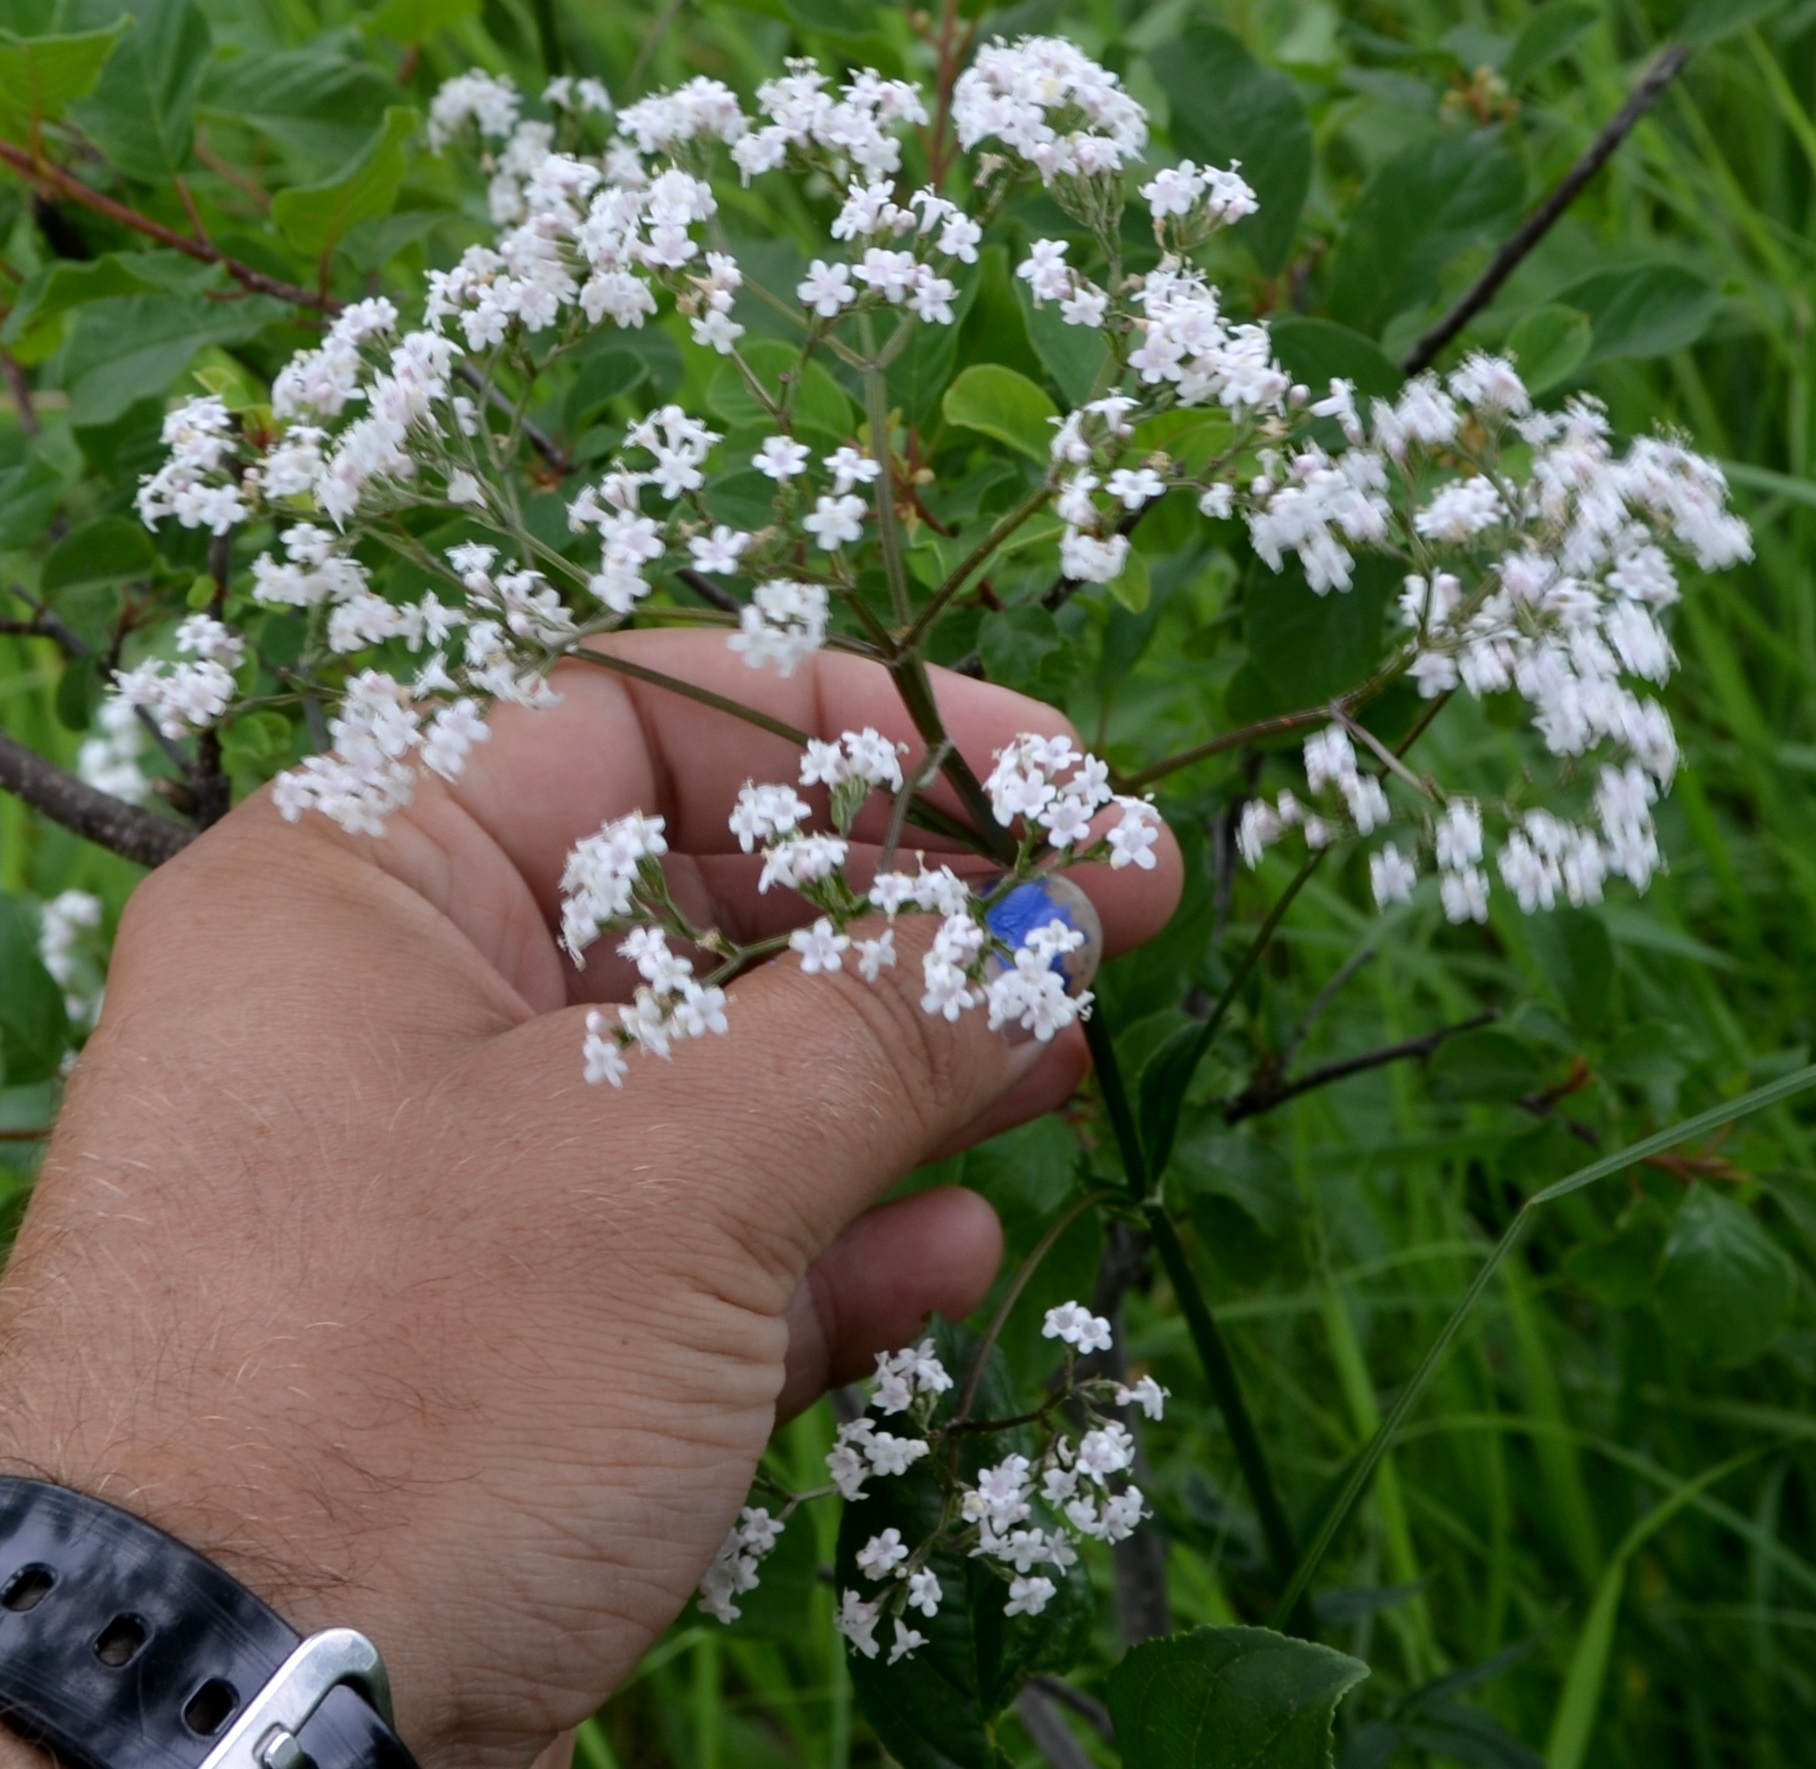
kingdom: Plantae
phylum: Tracheophyta
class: Magnoliopsida
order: Dipsacales
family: Caprifoliaceae
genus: Valeriana
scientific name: Valeriana officinalis
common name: Common valerian
